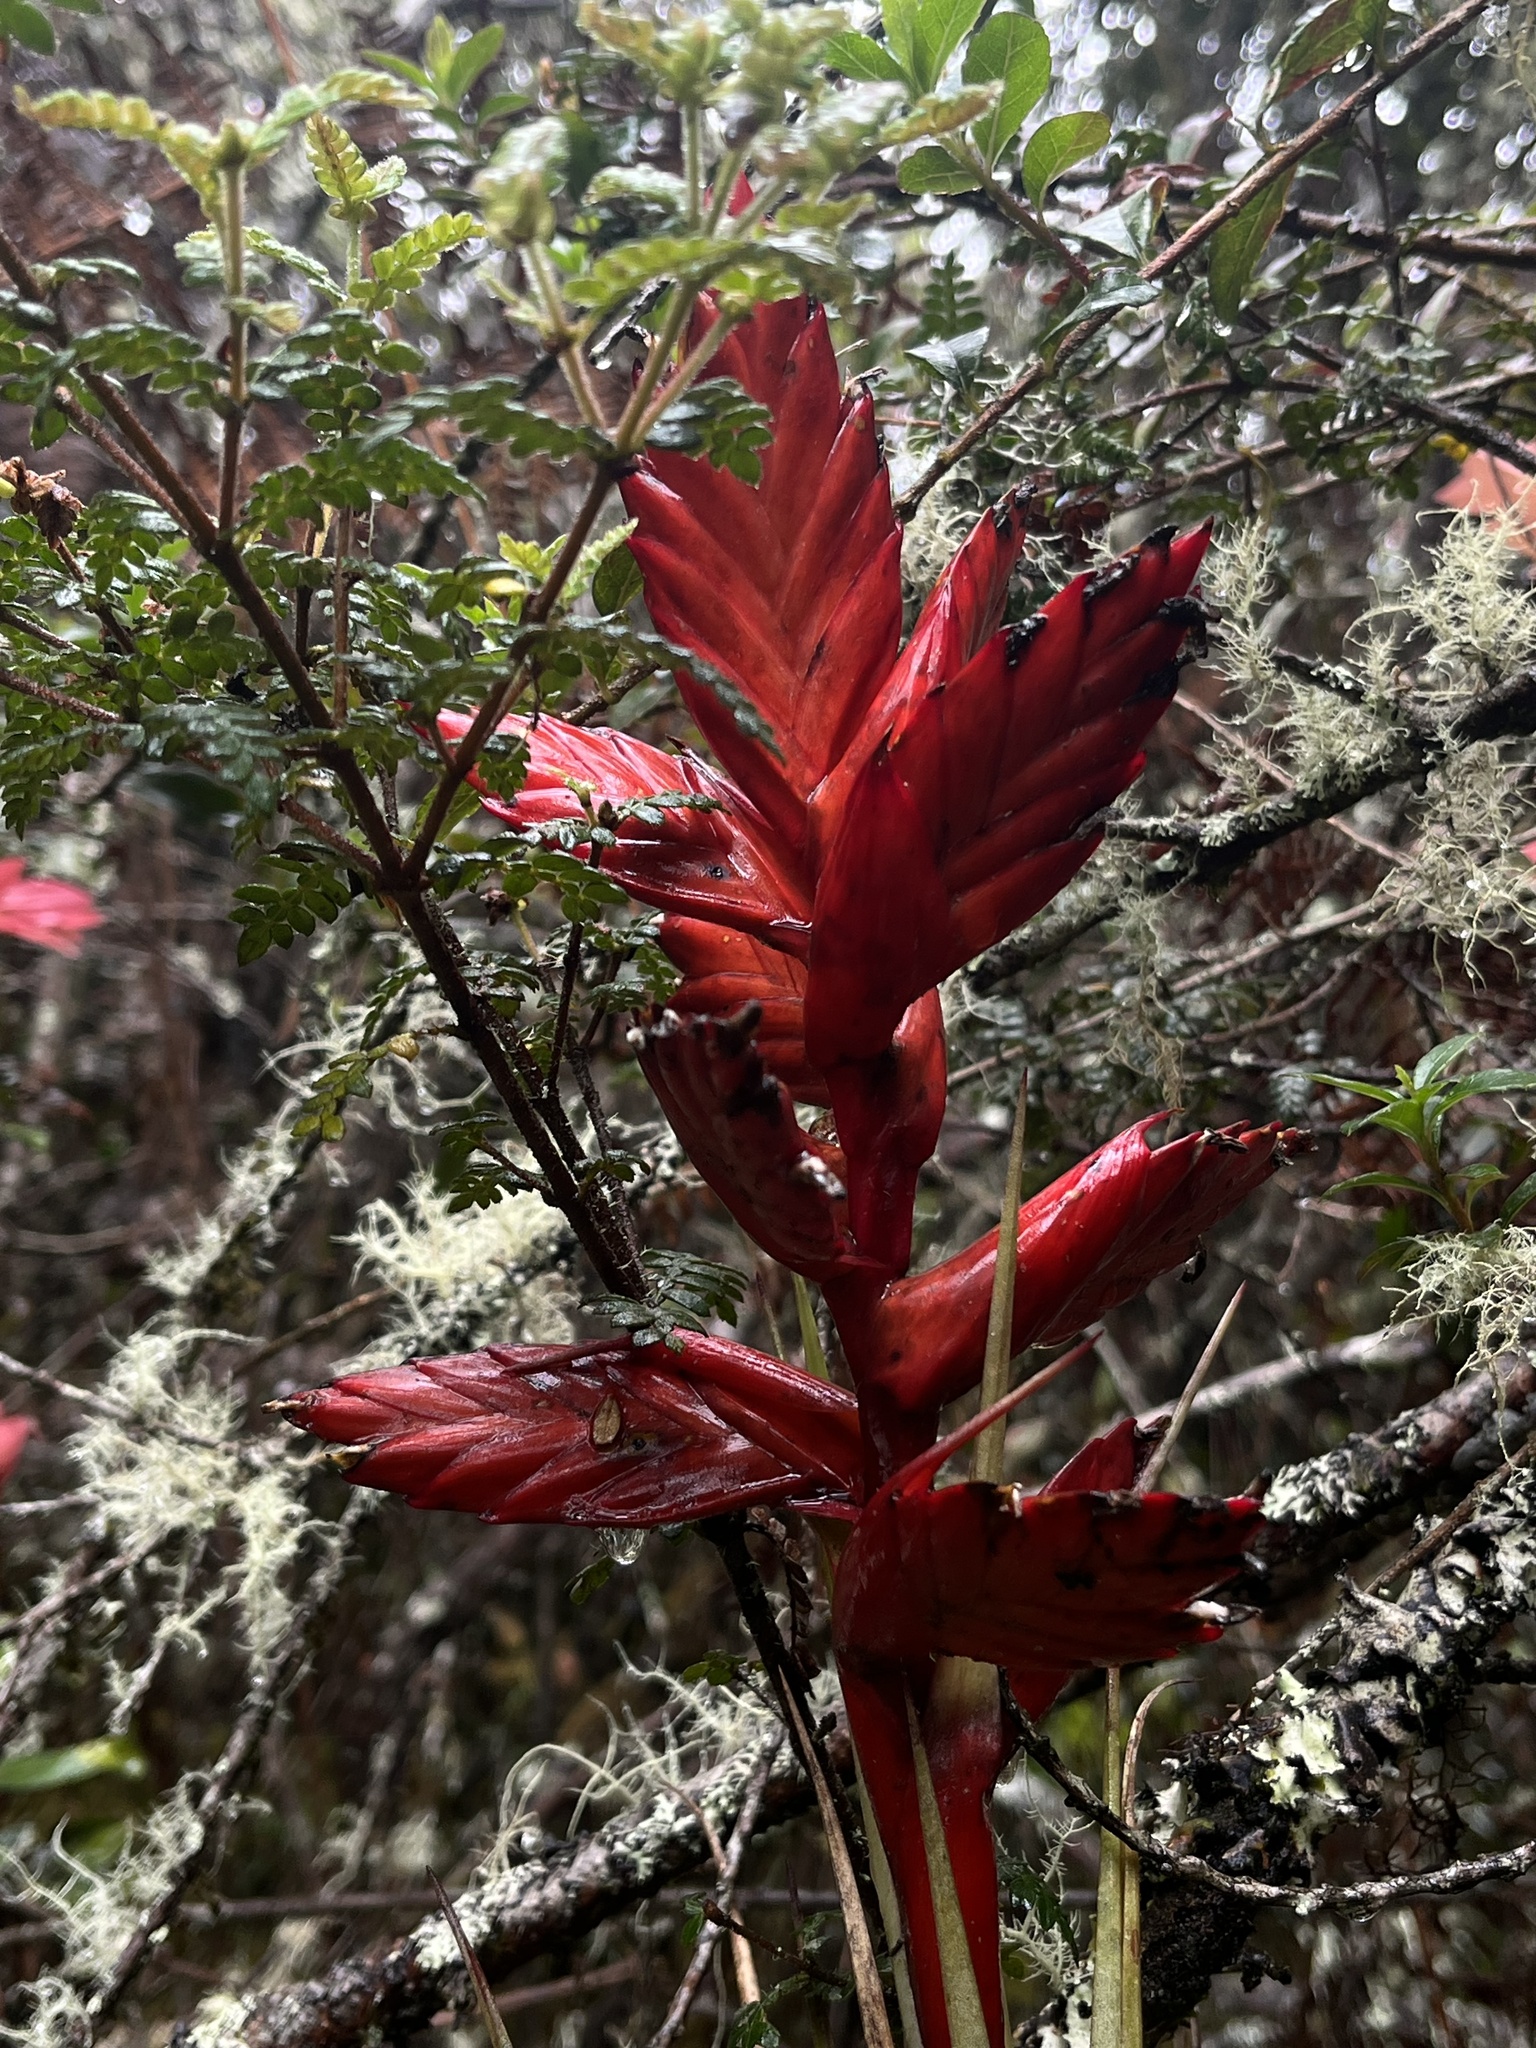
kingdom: Plantae
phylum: Tracheophyta
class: Liliopsida
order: Poales
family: Bromeliaceae
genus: Tillandsia
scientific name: Tillandsia restrepoana
